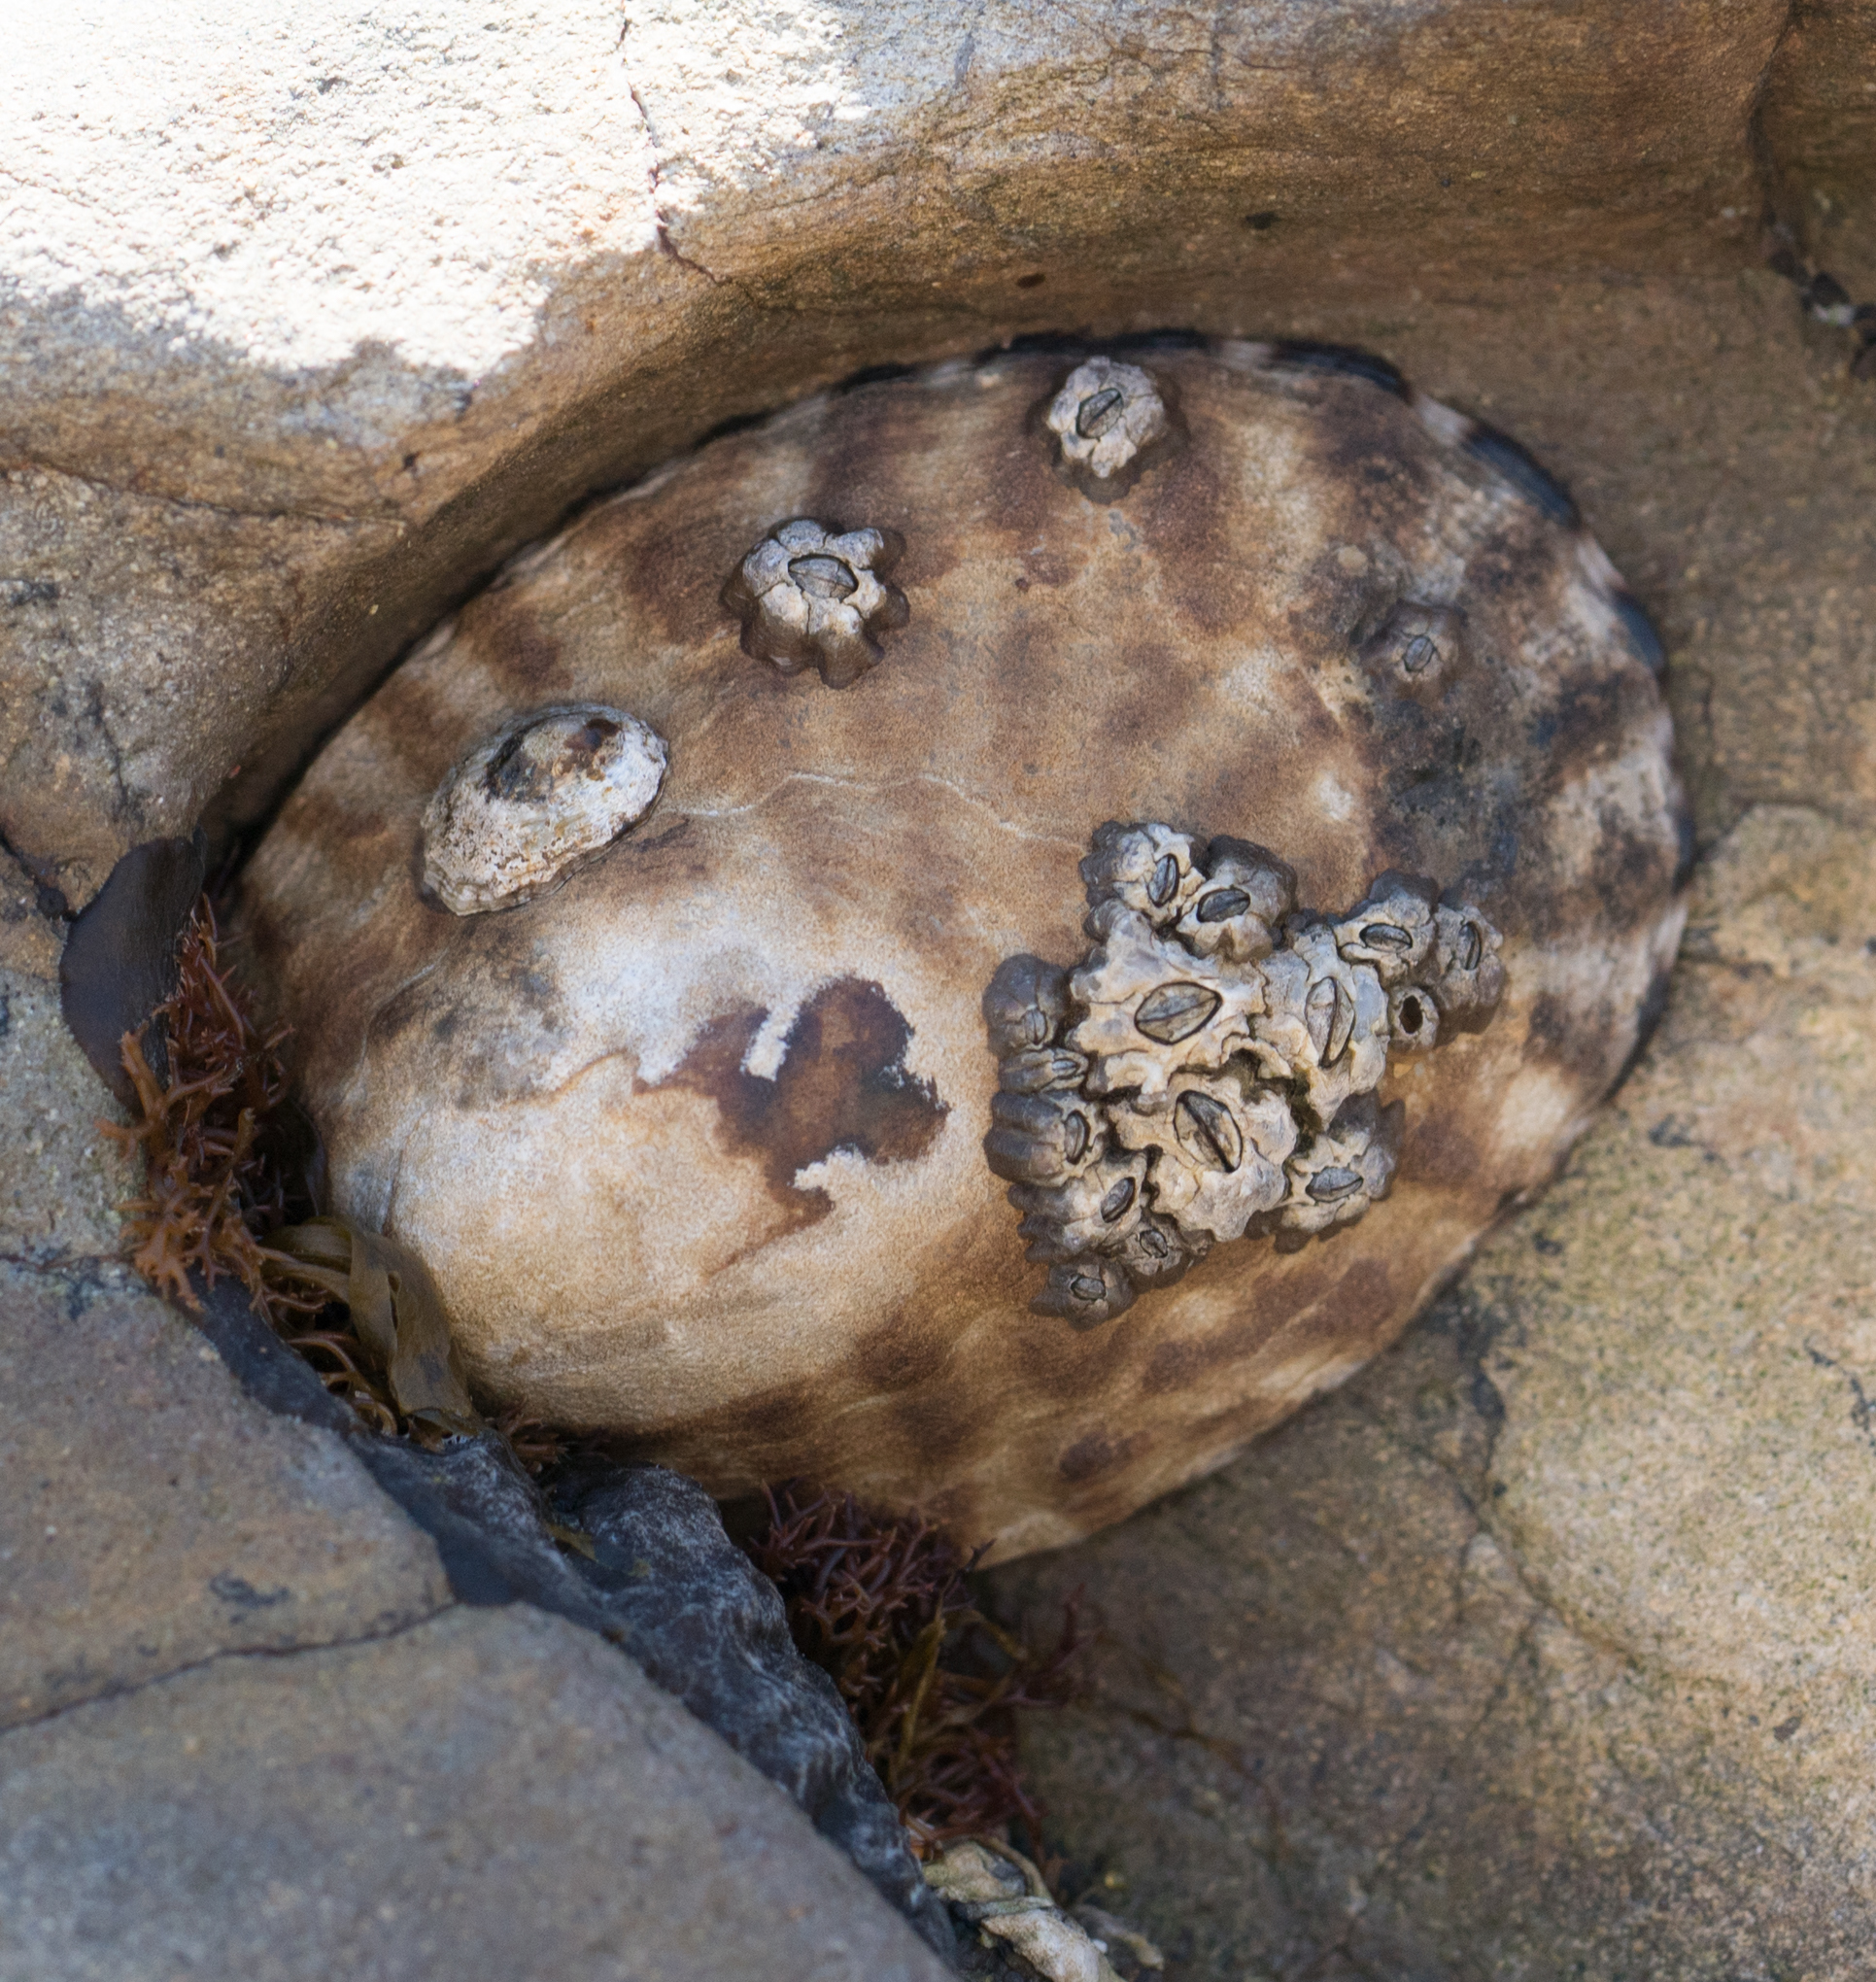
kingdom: Animalia
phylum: Mollusca
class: Gastropoda
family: Lottiidae
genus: Lottia
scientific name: Lottia gigantea
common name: Owl limpet
